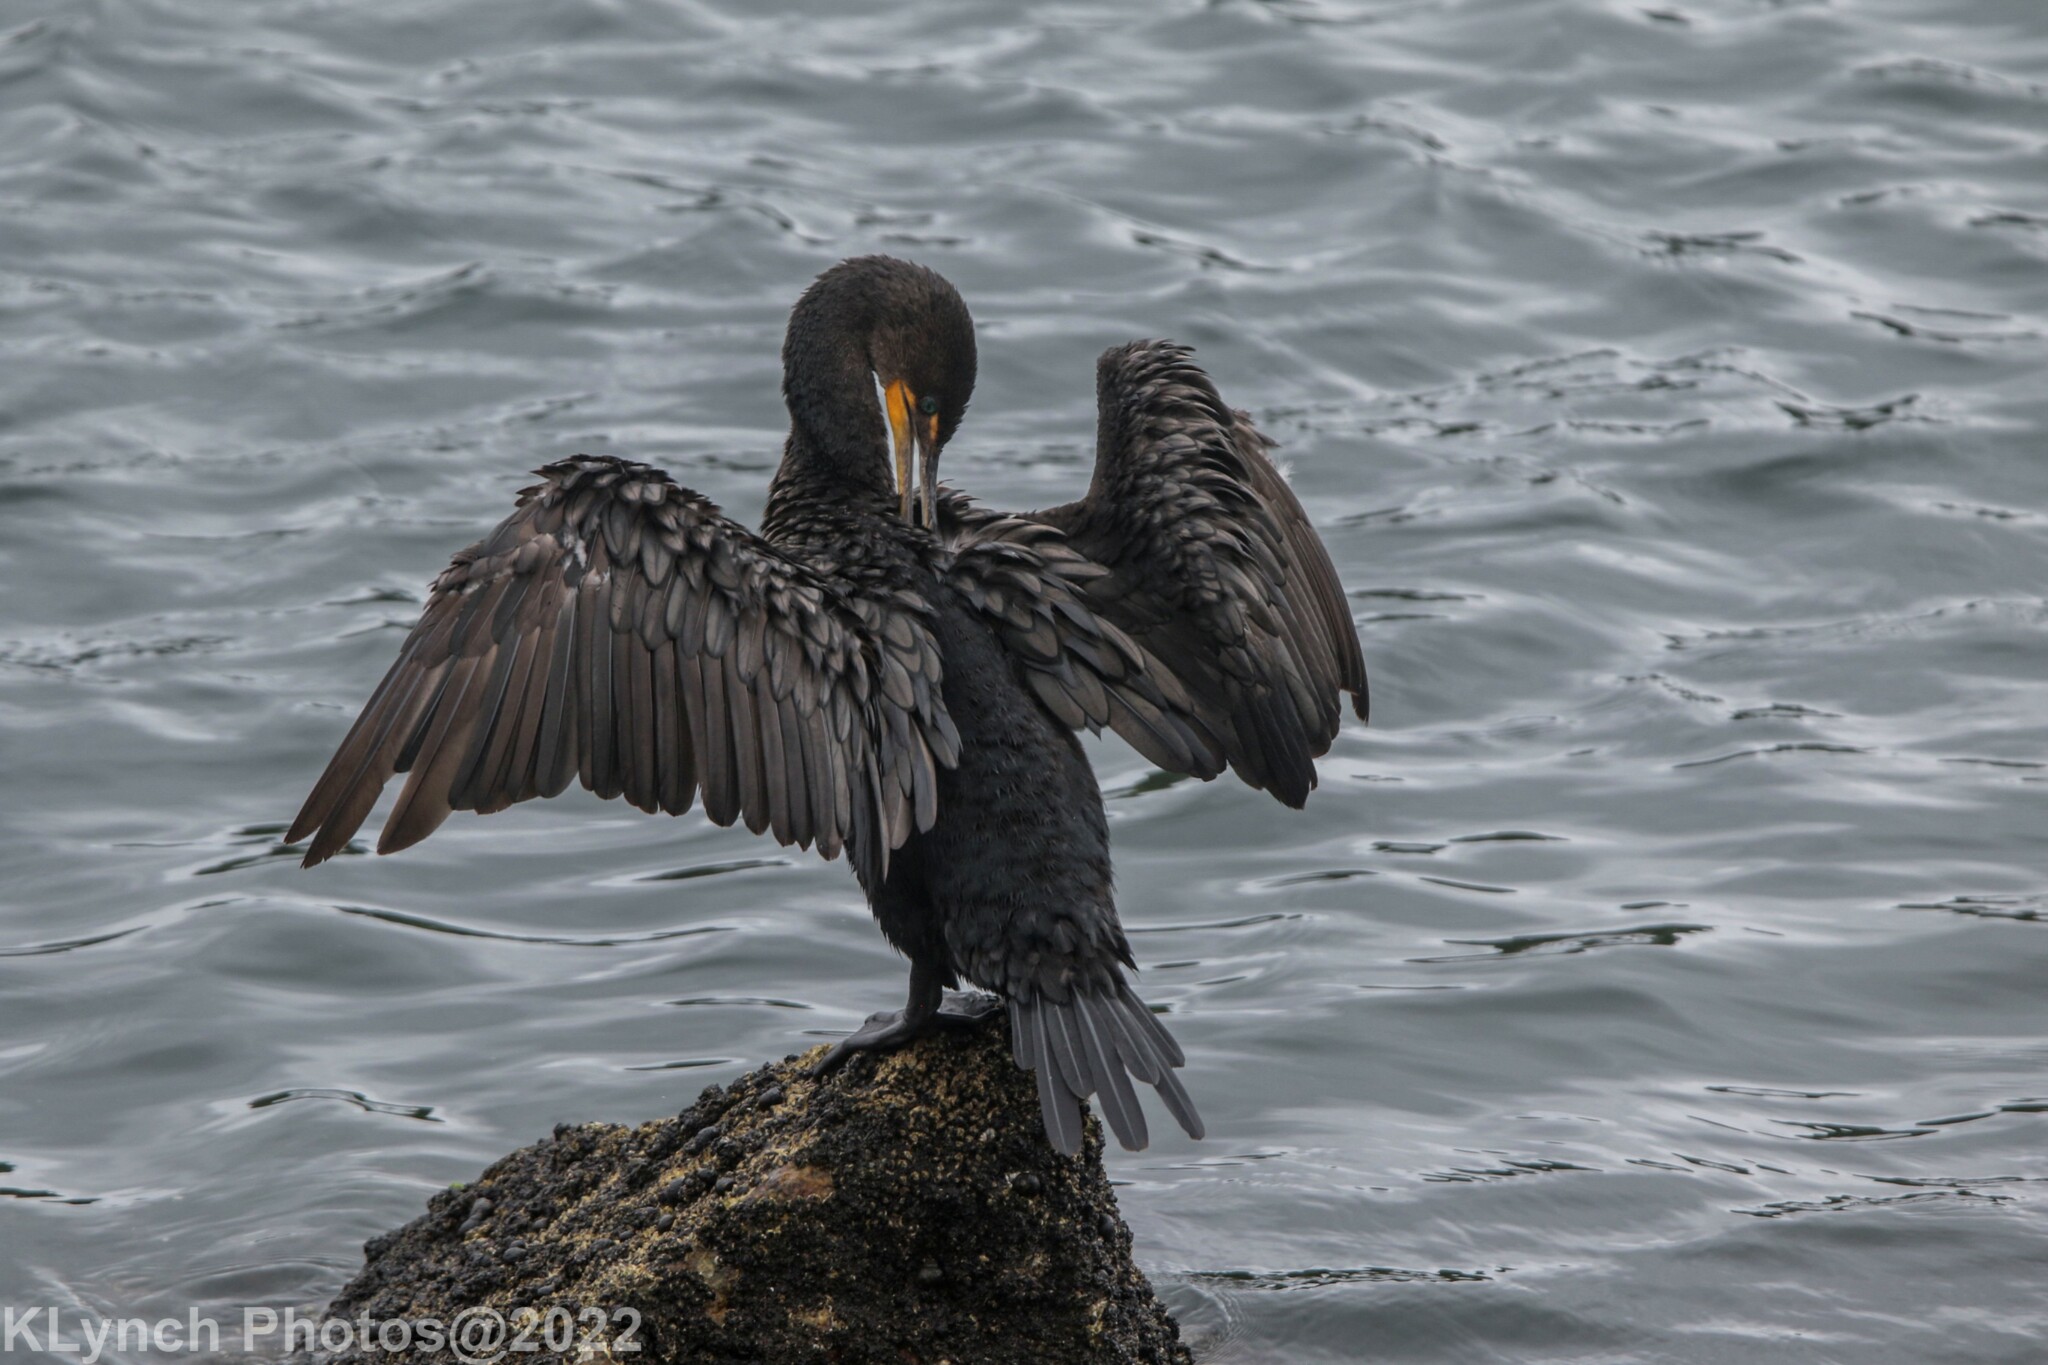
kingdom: Animalia
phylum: Chordata
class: Aves
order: Suliformes
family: Phalacrocoracidae
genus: Phalacrocorax
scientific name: Phalacrocorax auritus
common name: Double-crested cormorant
